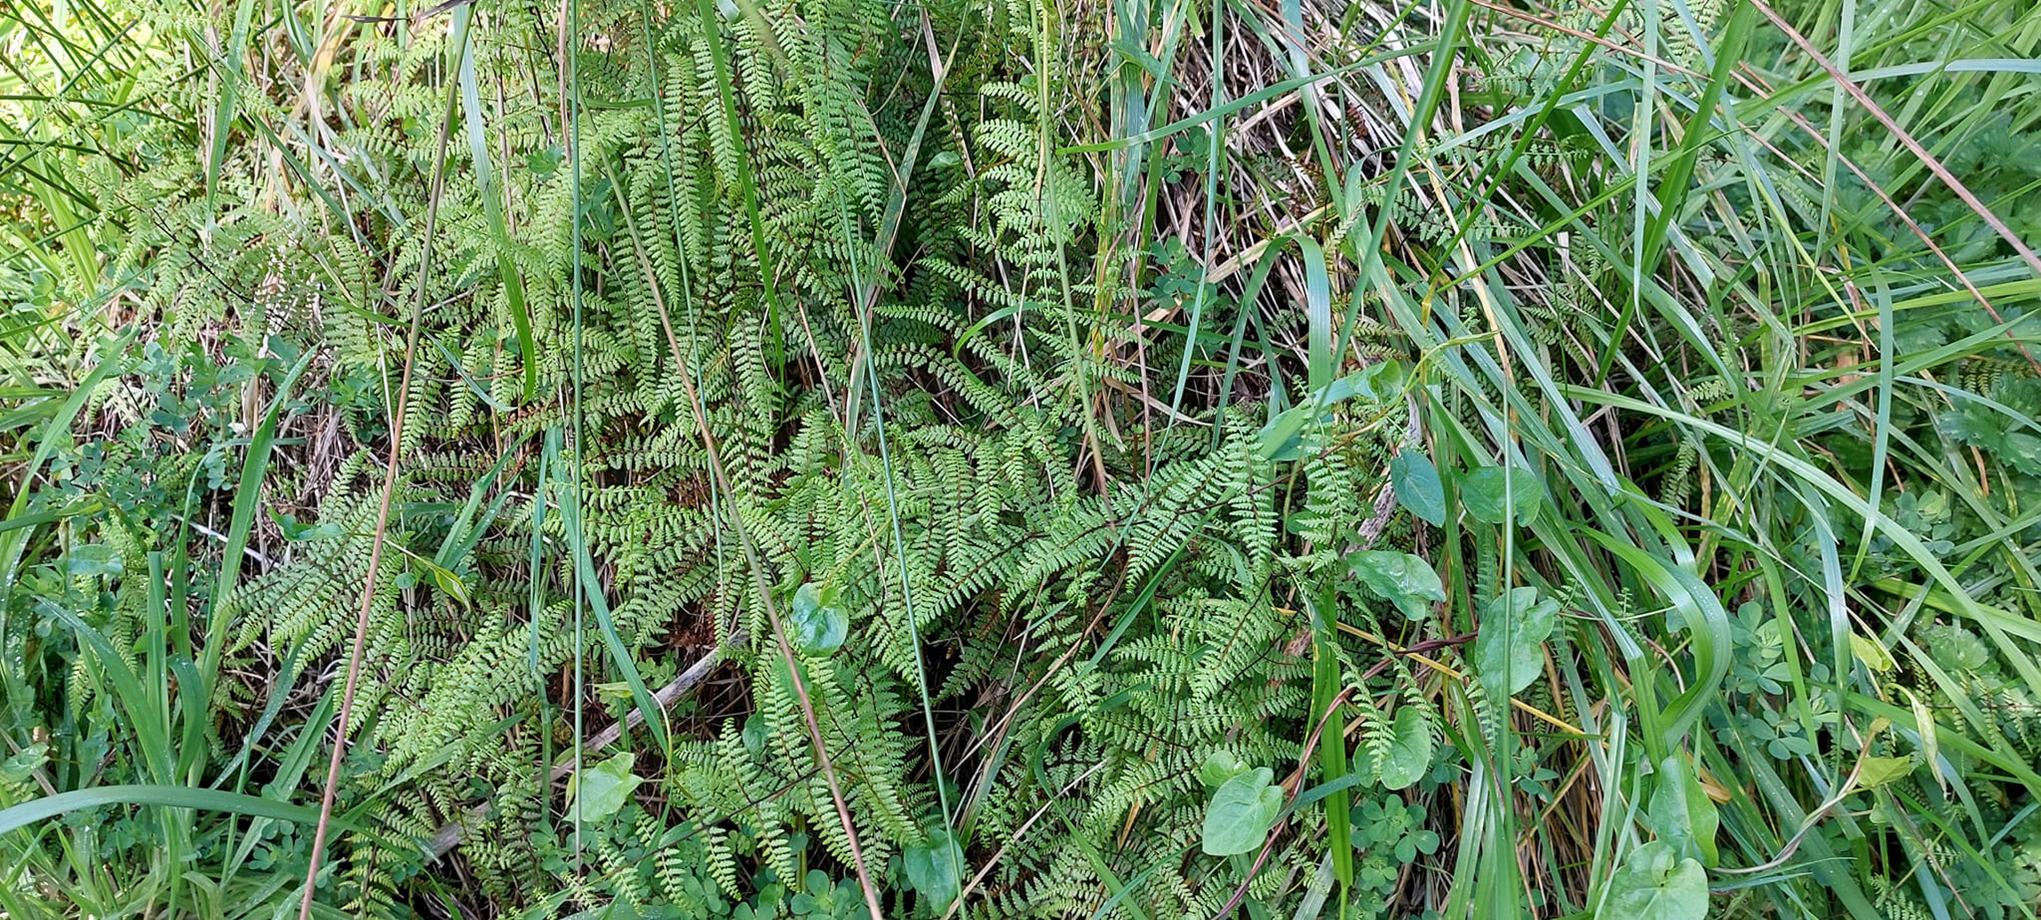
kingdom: Plantae
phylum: Tracheophyta
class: Polypodiopsida
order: Polypodiales
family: Dennstaedtiaceae
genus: Hiya
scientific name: Hiya distans
